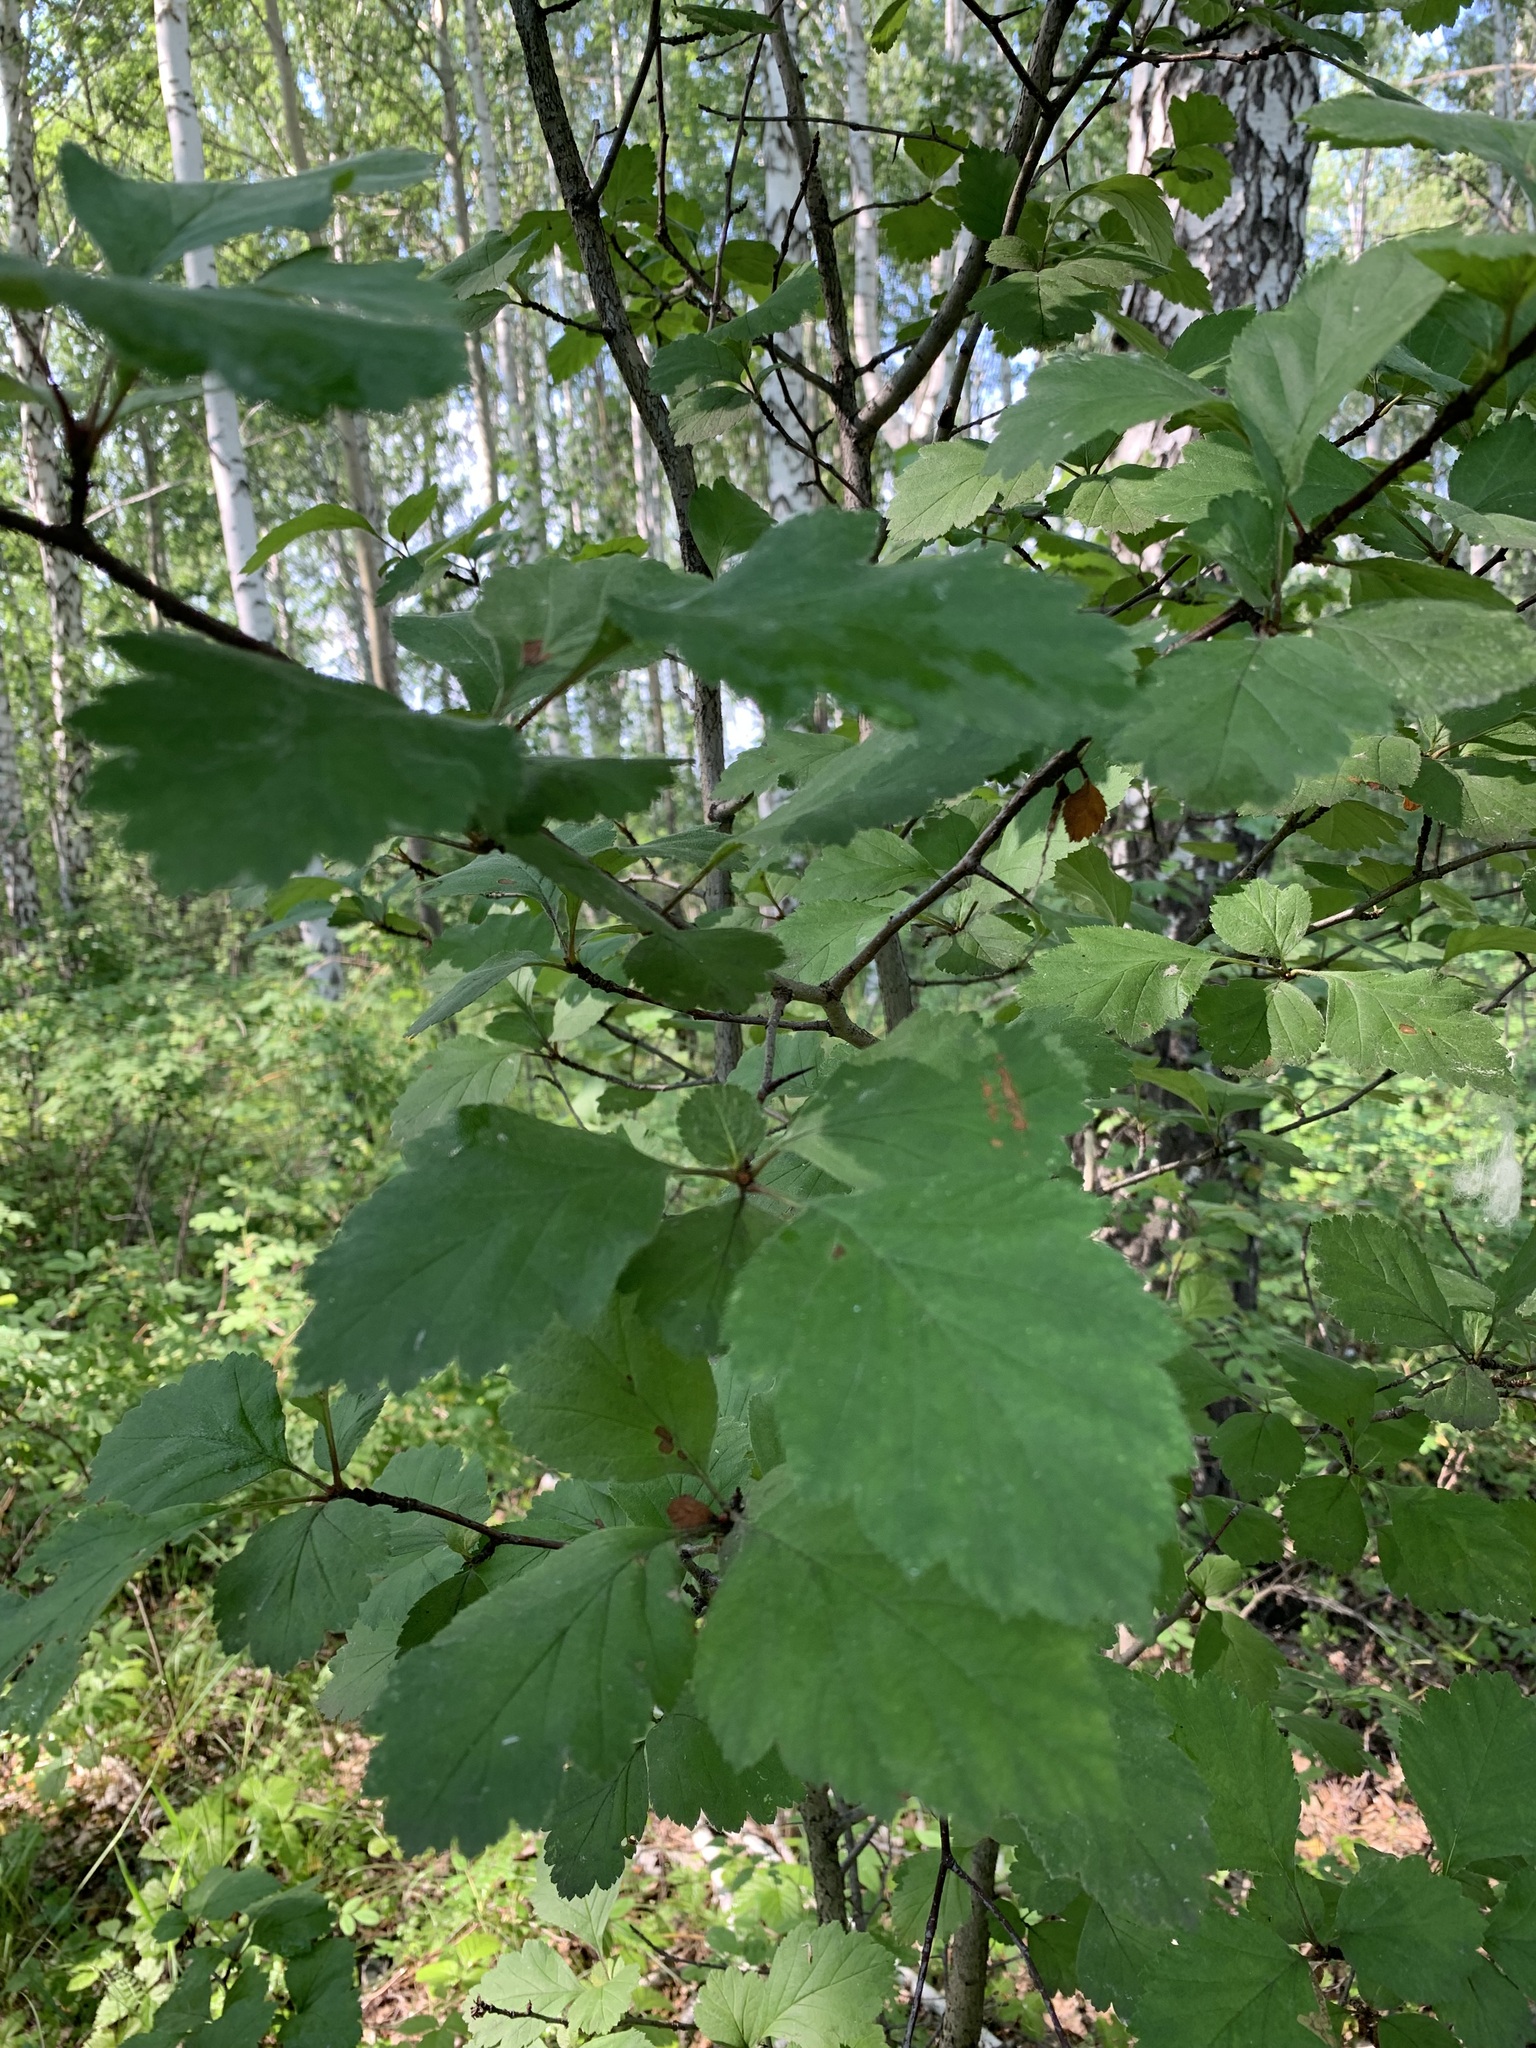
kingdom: Plantae
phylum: Tracheophyta
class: Magnoliopsida
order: Rosales
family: Rosaceae
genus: Crataegus
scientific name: Crataegus sanguinea
